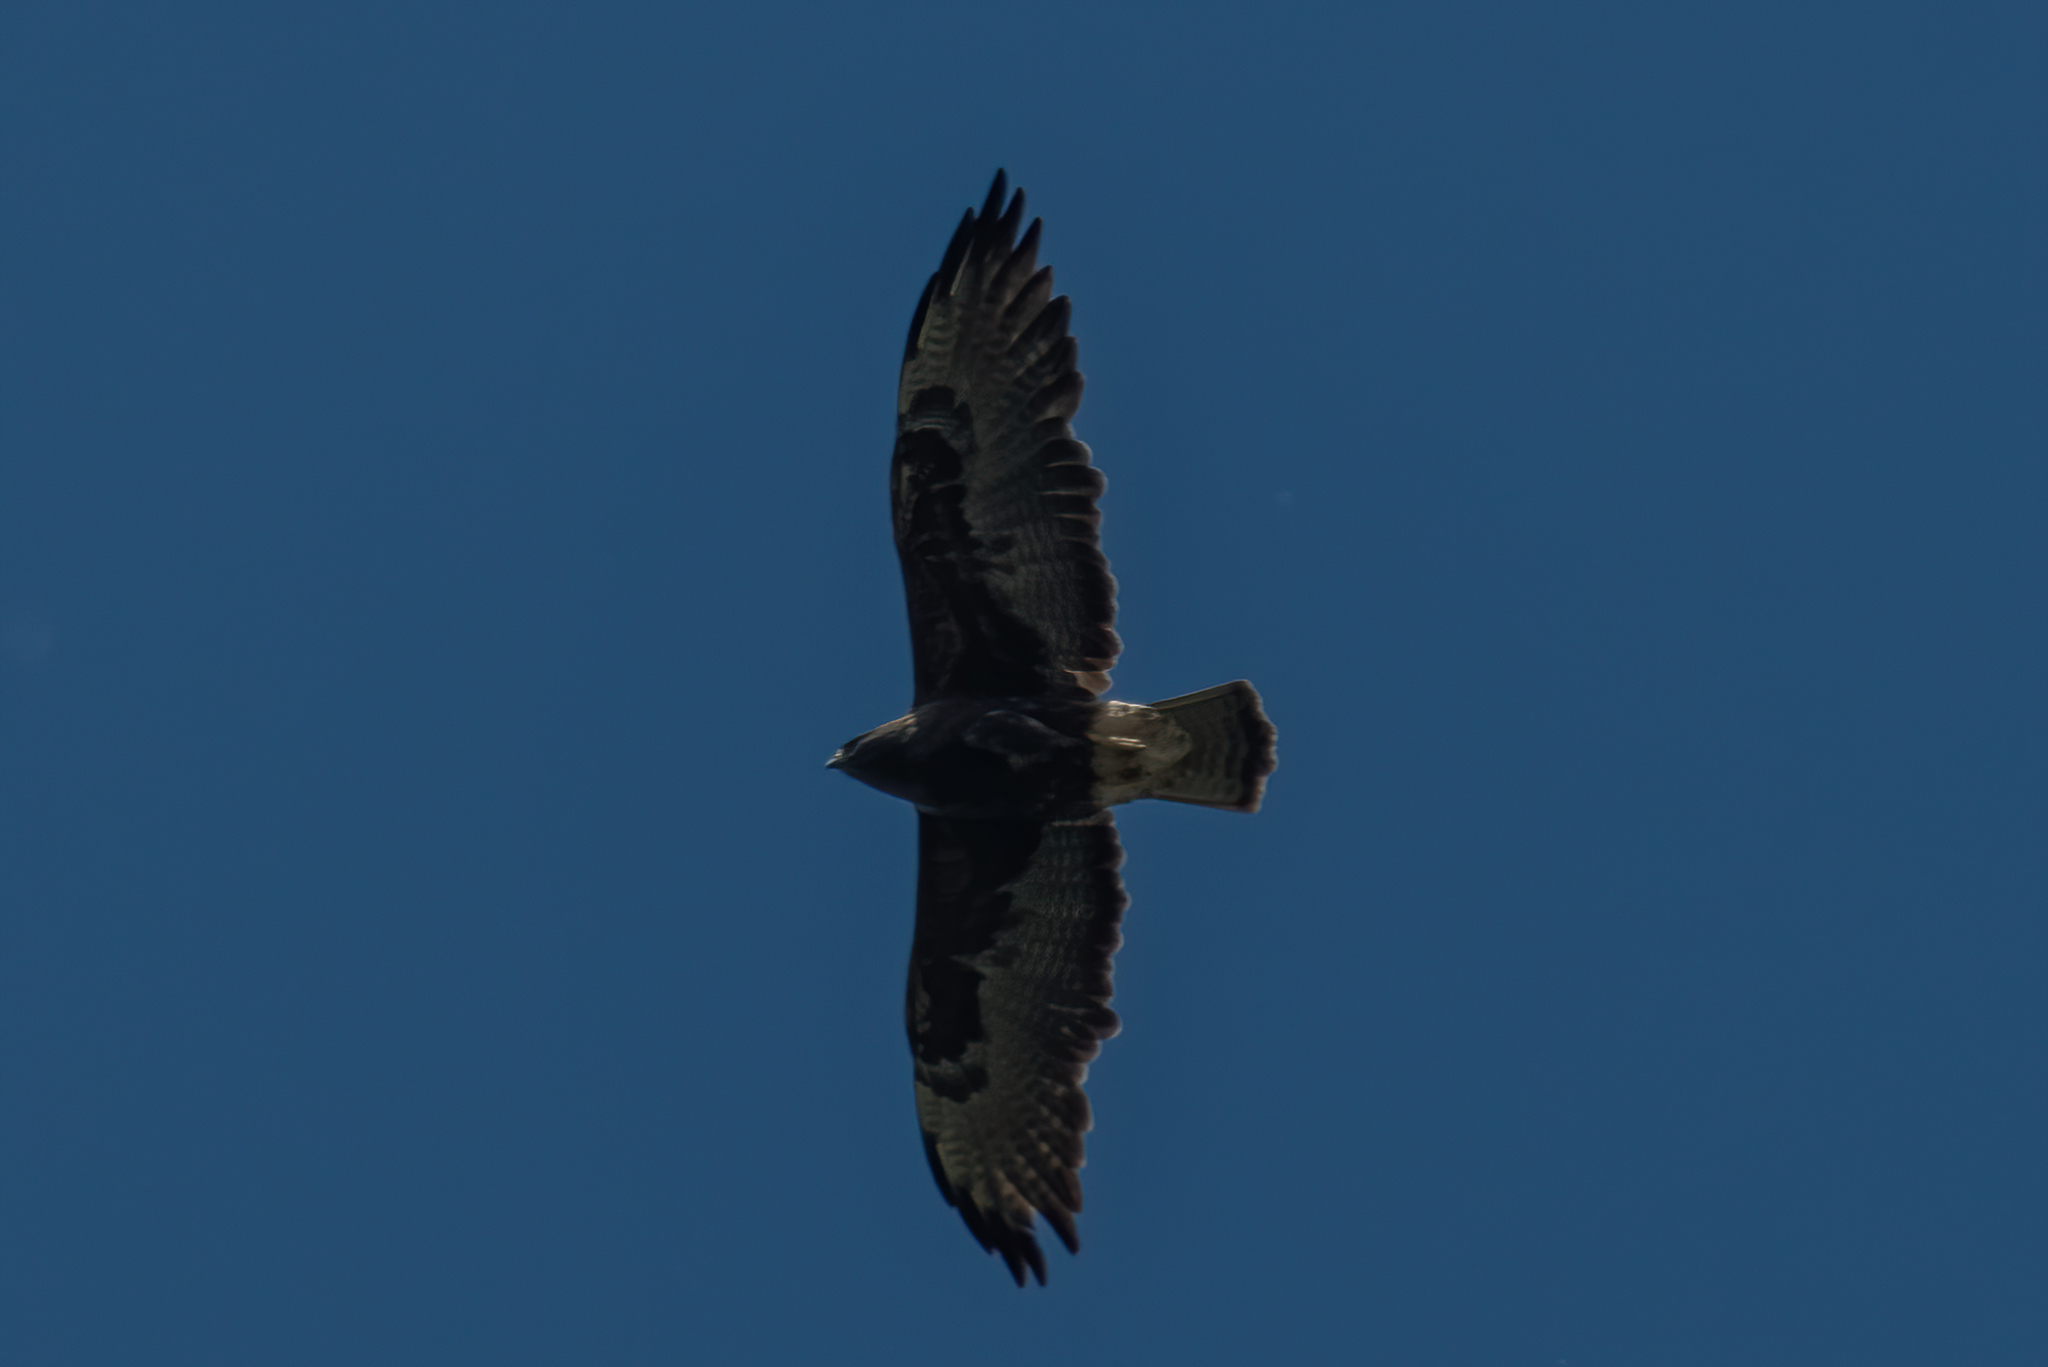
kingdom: Animalia
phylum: Chordata
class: Aves
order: Accipitriformes
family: Accipitridae
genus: Buteo
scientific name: Buteo swainsoni
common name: Swainson's hawk
